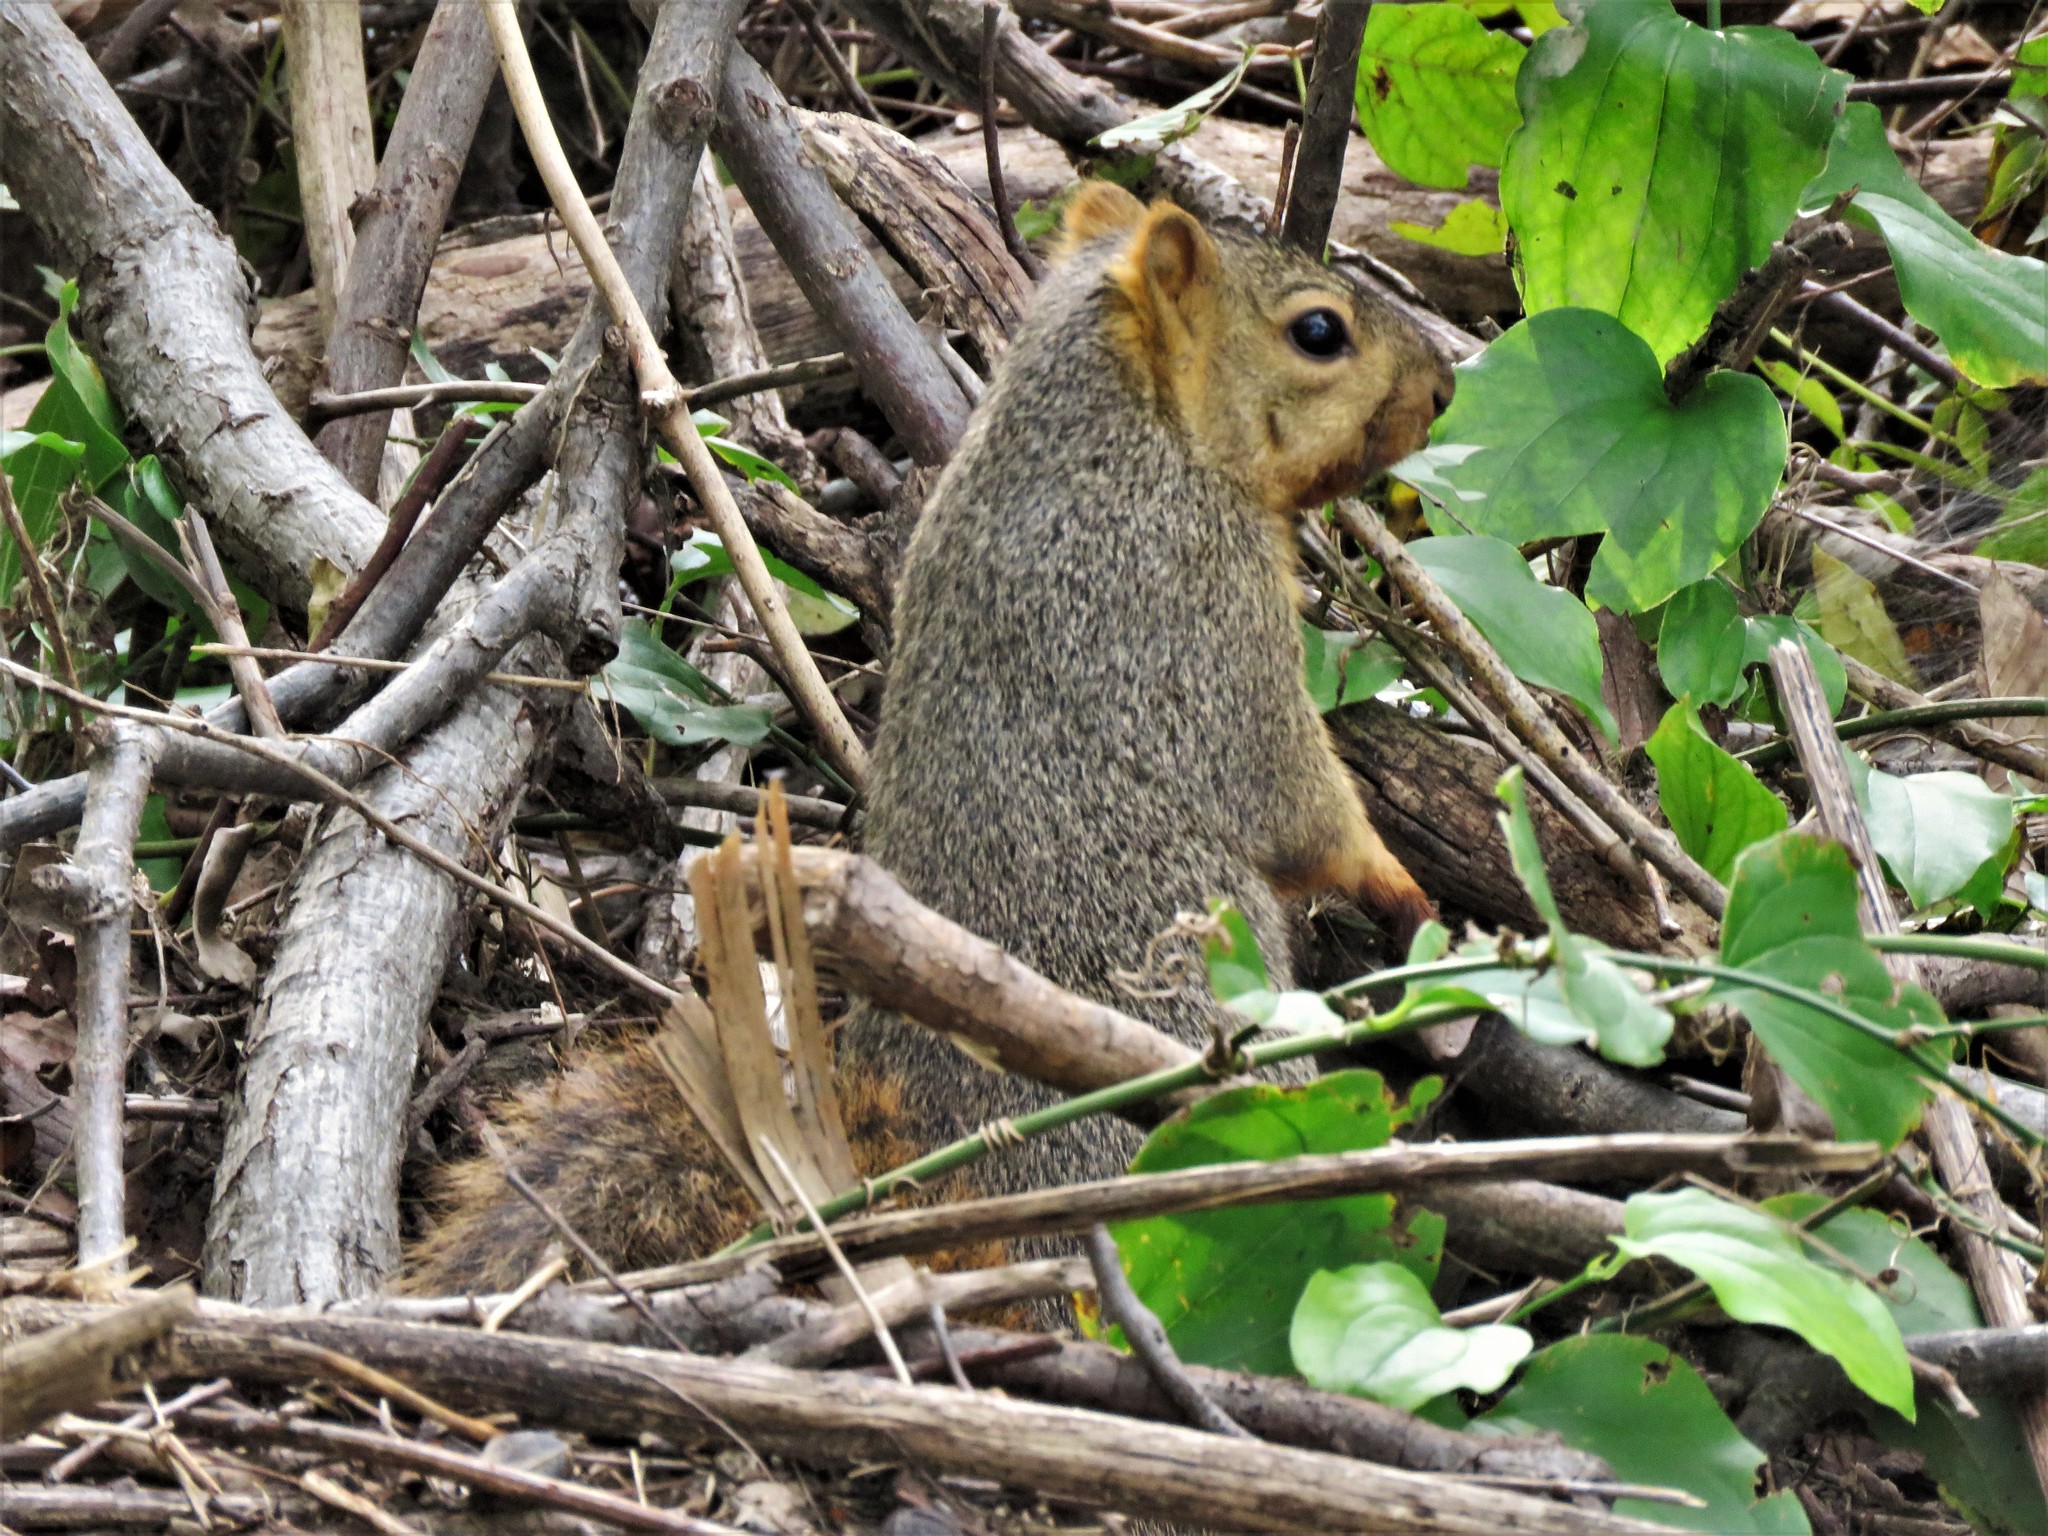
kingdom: Animalia
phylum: Chordata
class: Mammalia
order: Rodentia
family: Sciuridae
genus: Sciurus
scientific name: Sciurus niger
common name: Fox squirrel
